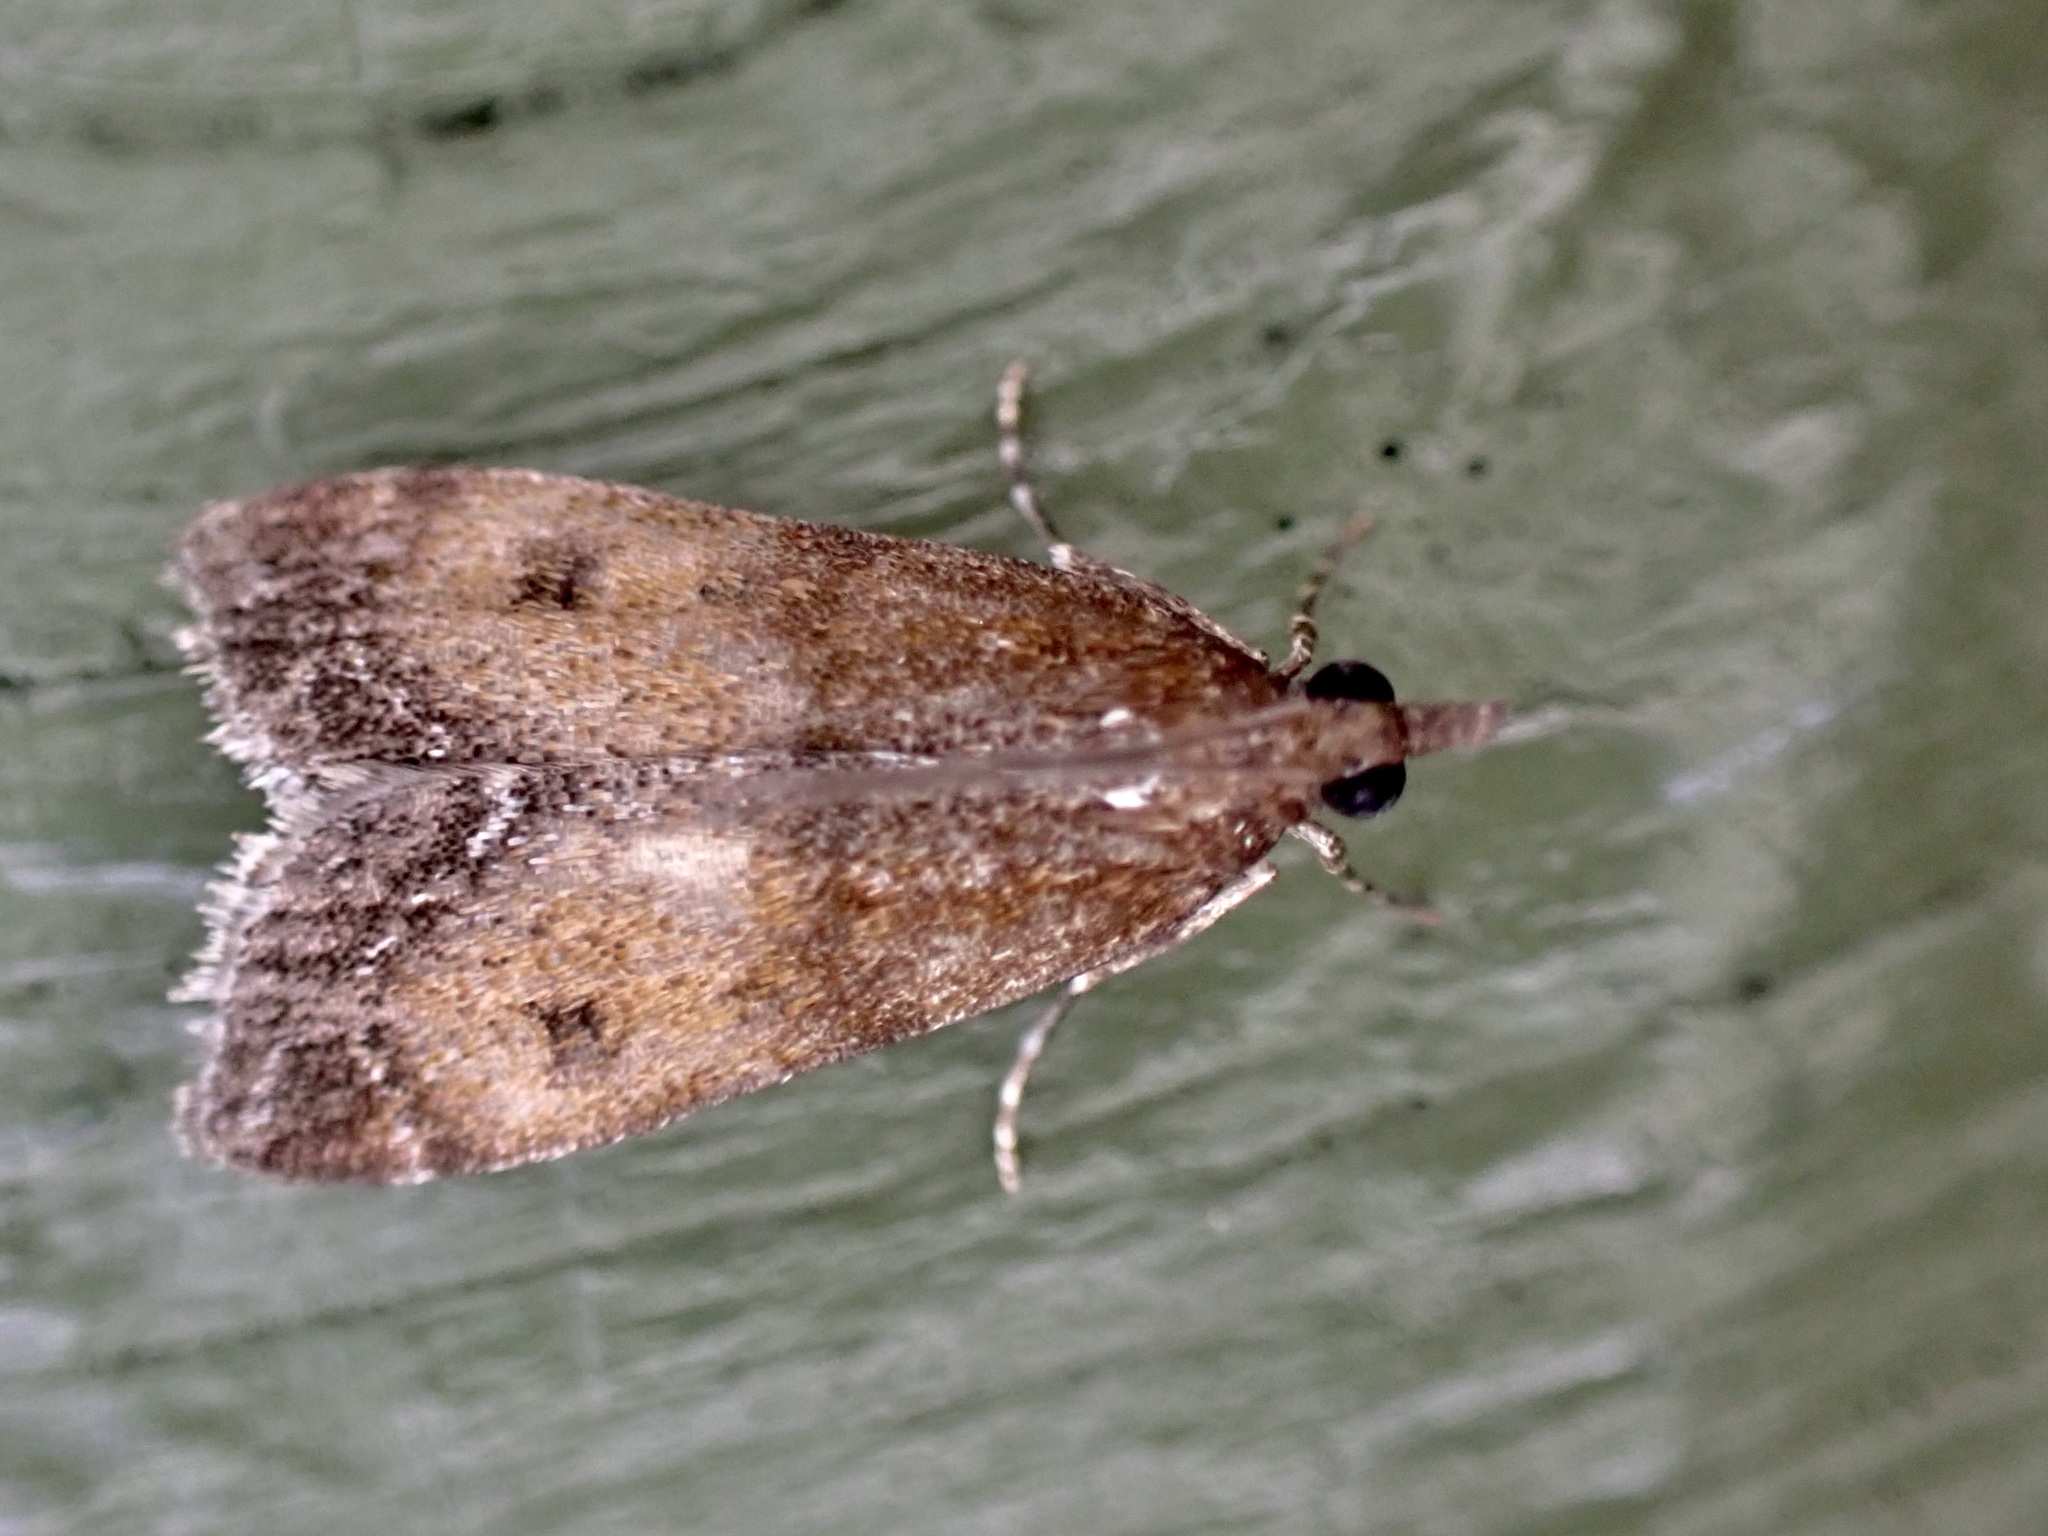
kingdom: Animalia
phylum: Arthropoda
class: Insecta
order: Lepidoptera
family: Crambidae
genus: Eudonia
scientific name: Eudonia asterisca
